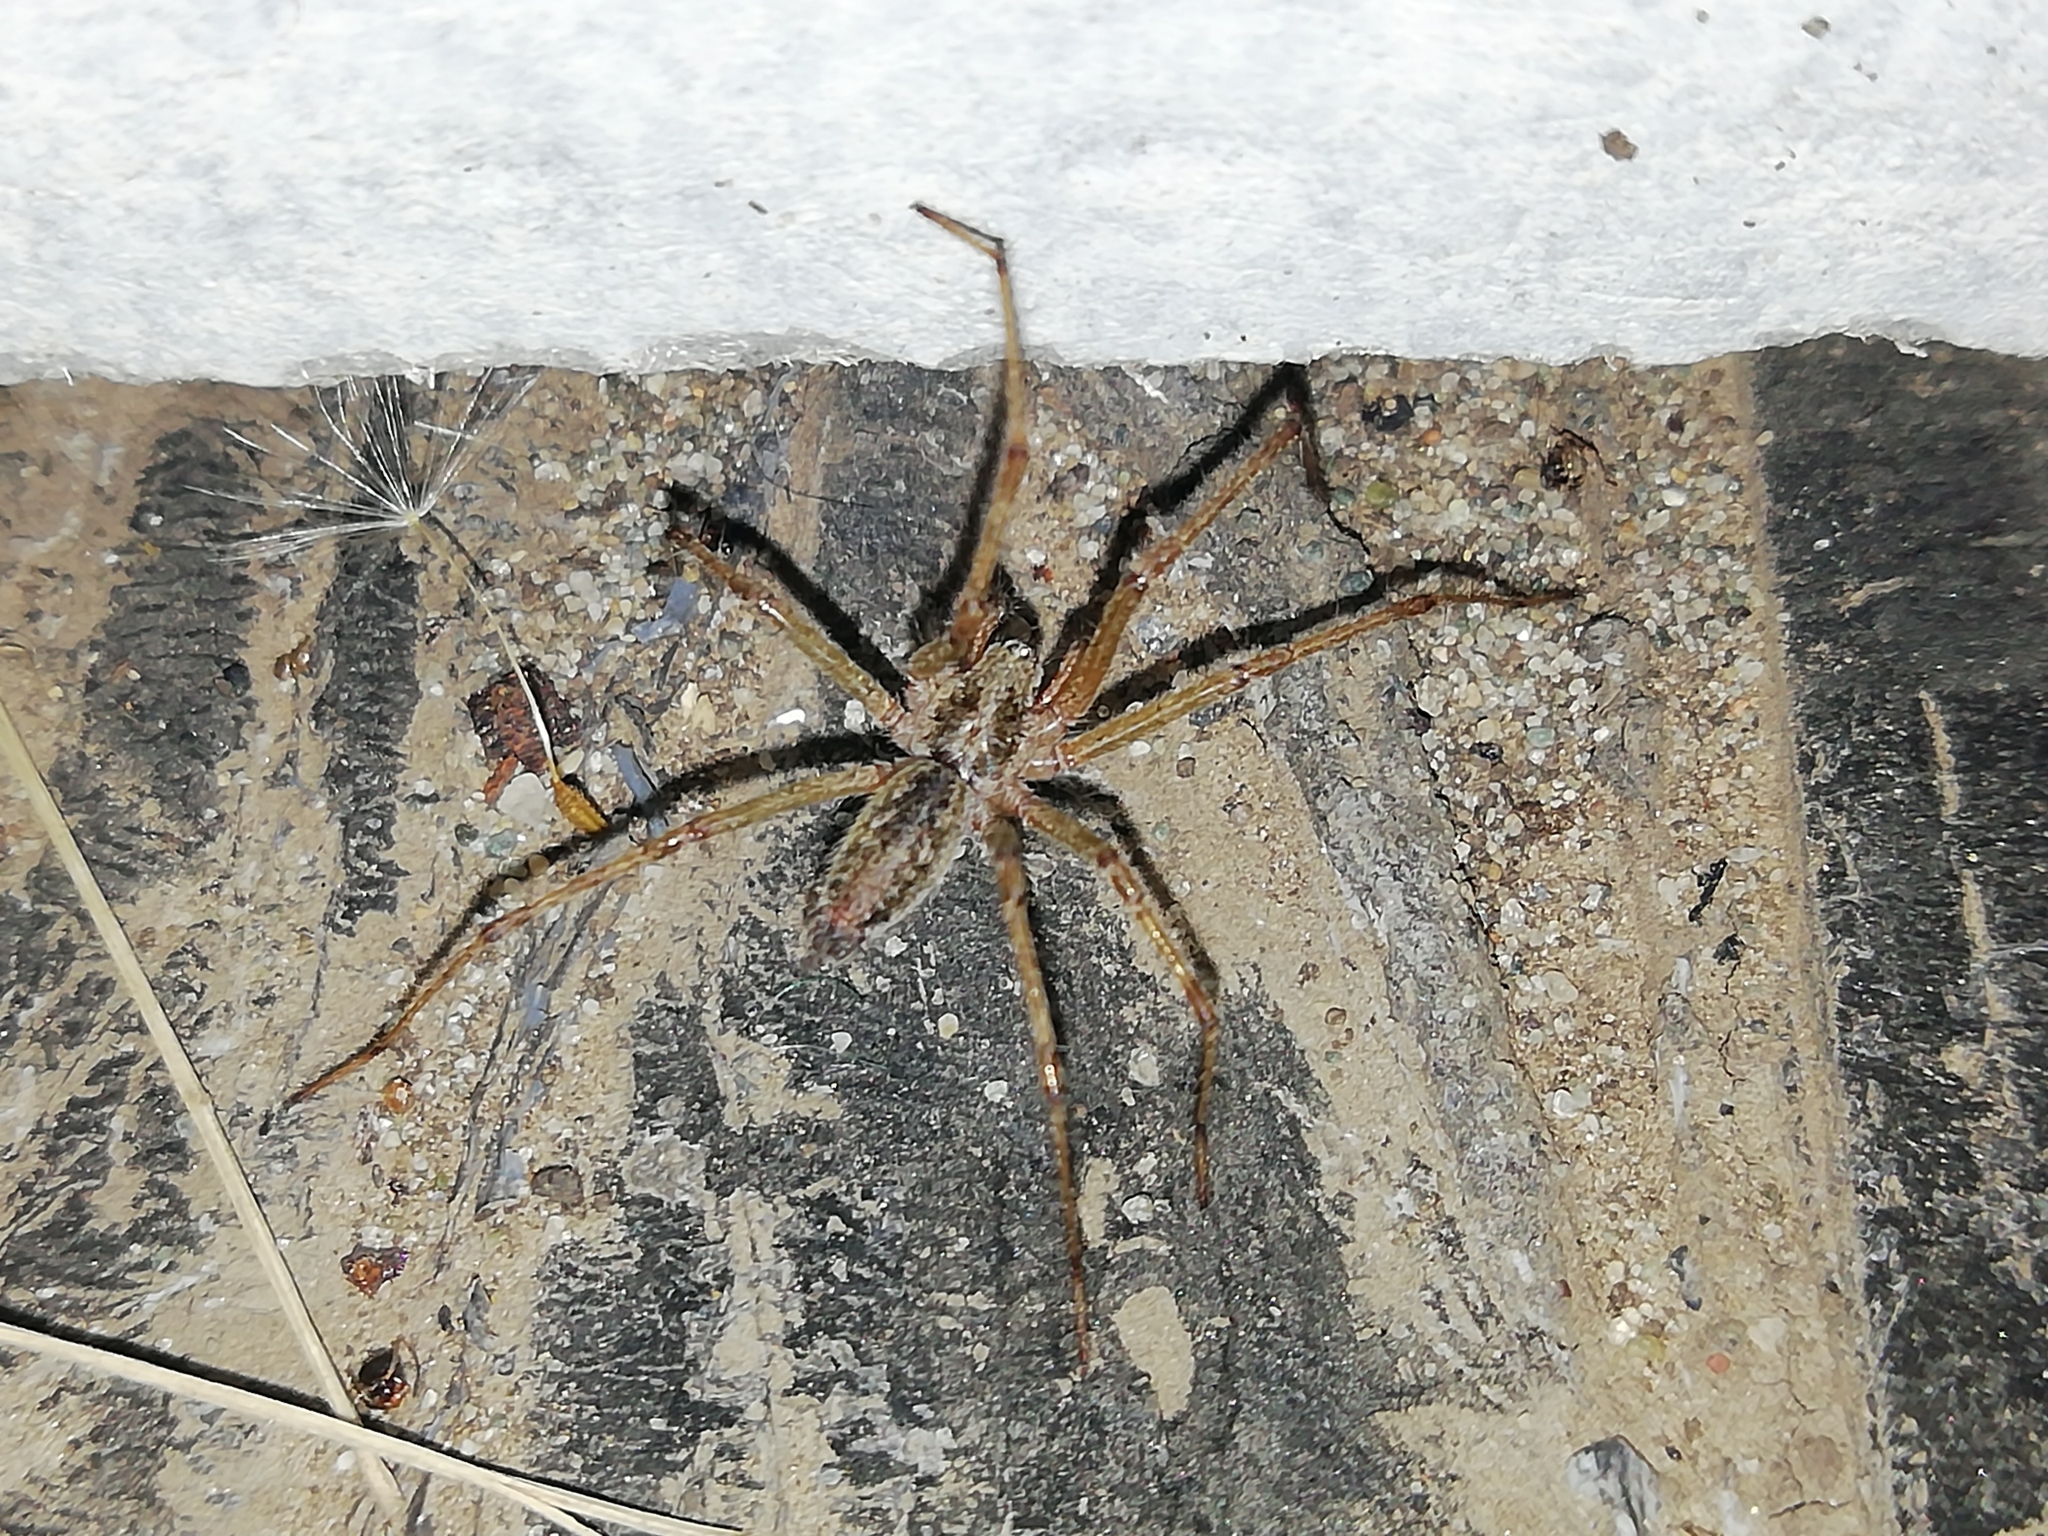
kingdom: Animalia
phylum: Arthropoda
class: Arachnida
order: Araneae
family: Agelenidae
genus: Allagelena
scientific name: Allagelena gracilens
